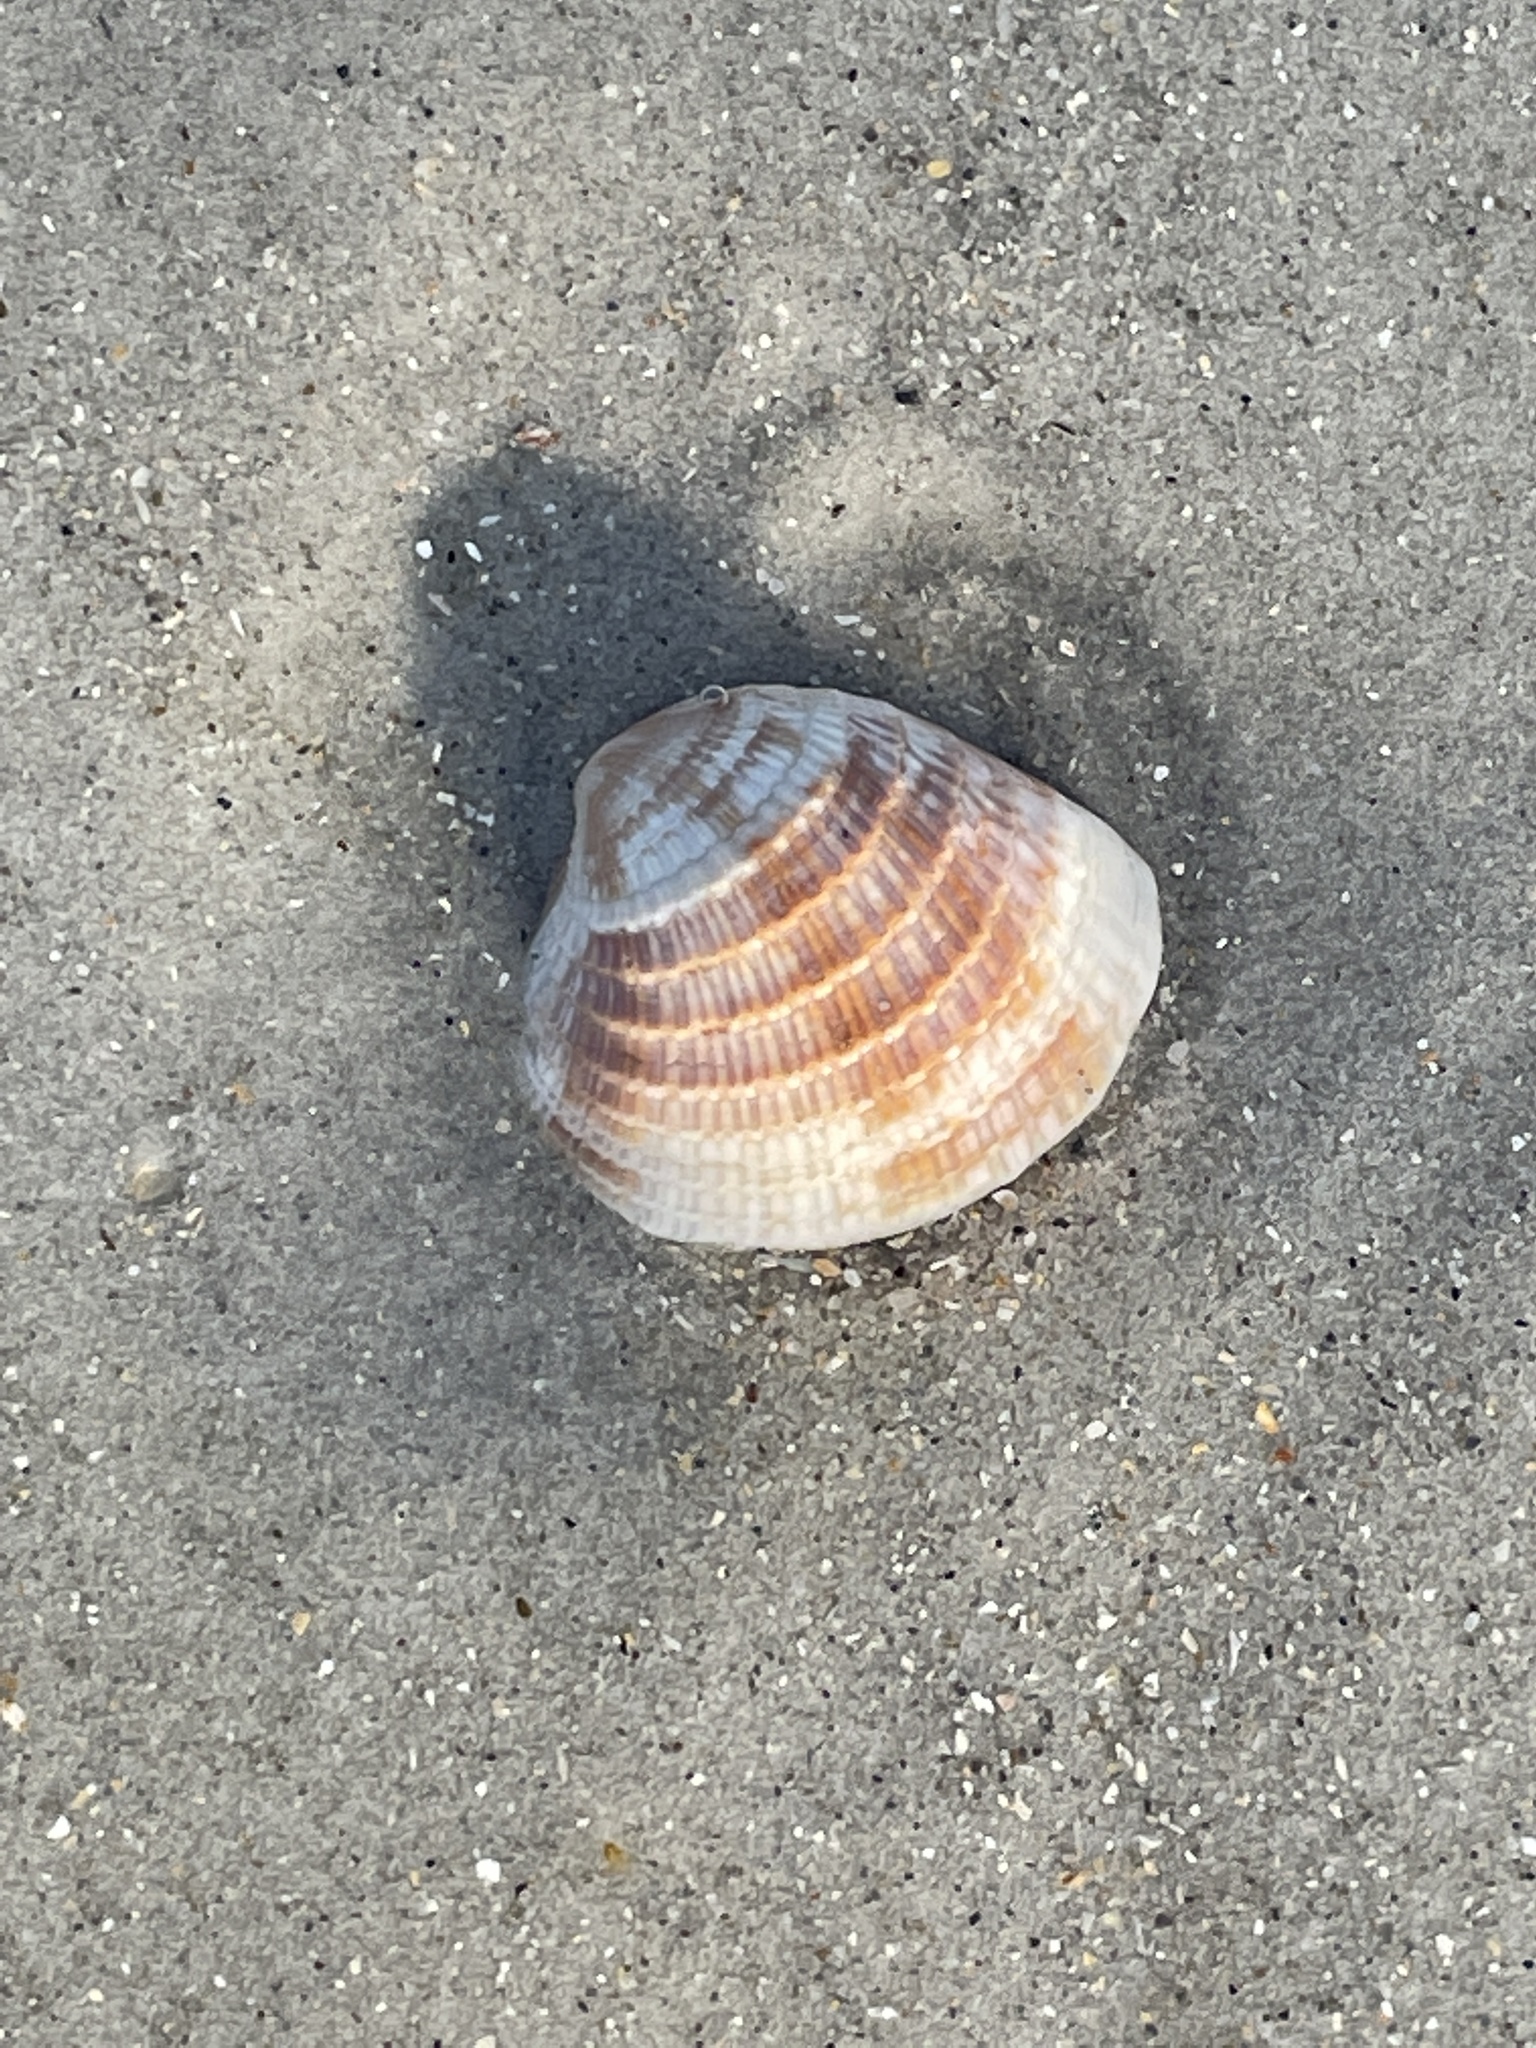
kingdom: Animalia
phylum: Mollusca
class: Bivalvia
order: Venerida
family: Veneridae
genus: Chione
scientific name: Chione elevata
